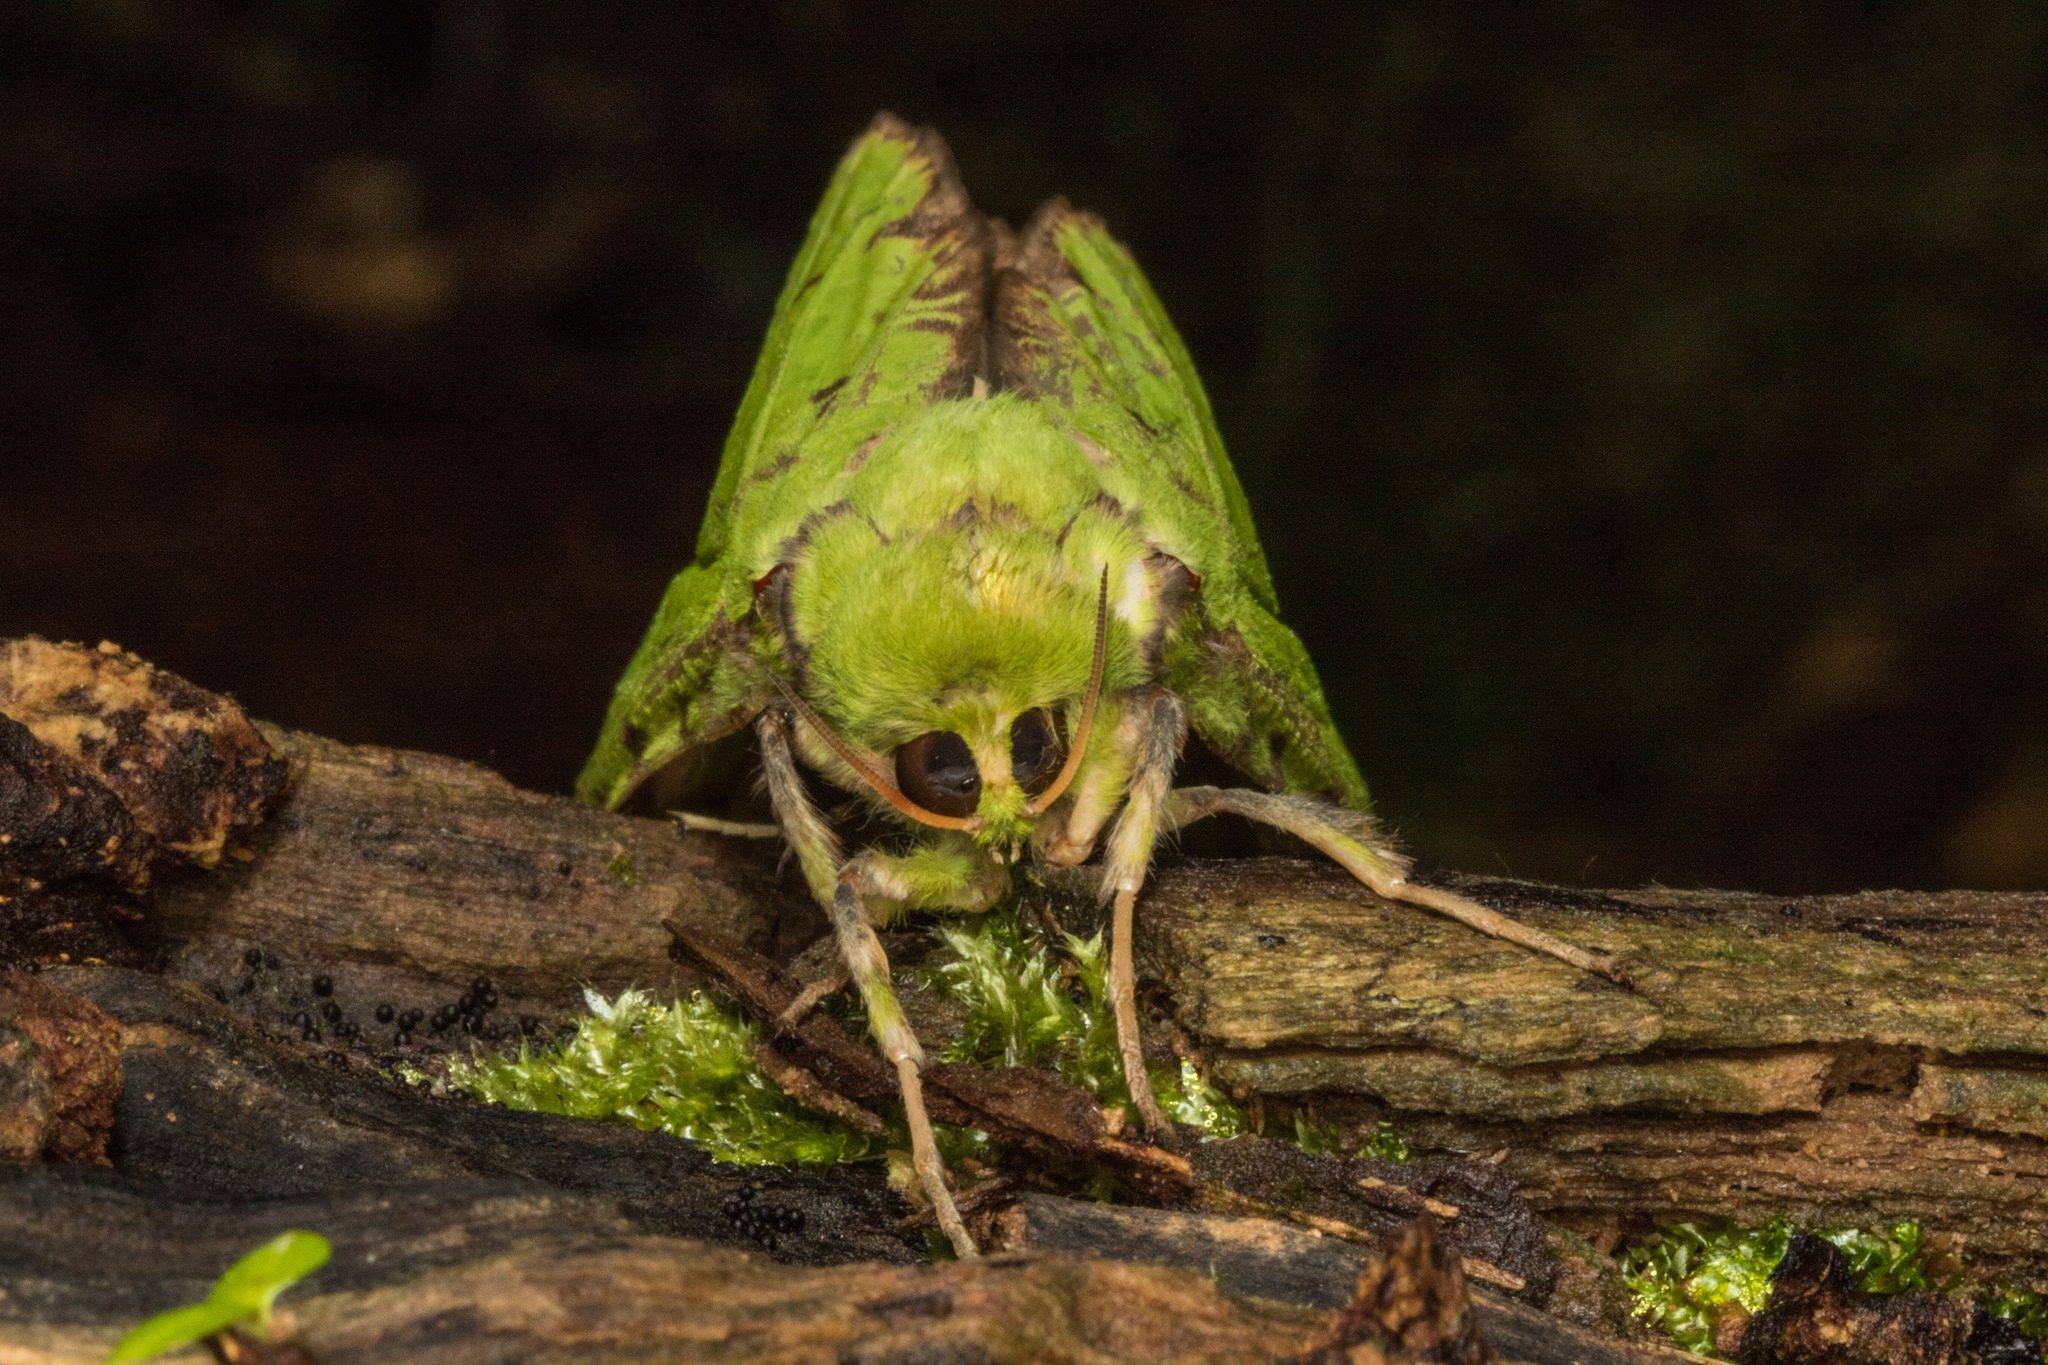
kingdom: Animalia
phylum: Arthropoda
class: Insecta
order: Lepidoptera
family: Hepialidae
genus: Aenetus
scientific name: Aenetus virescens
